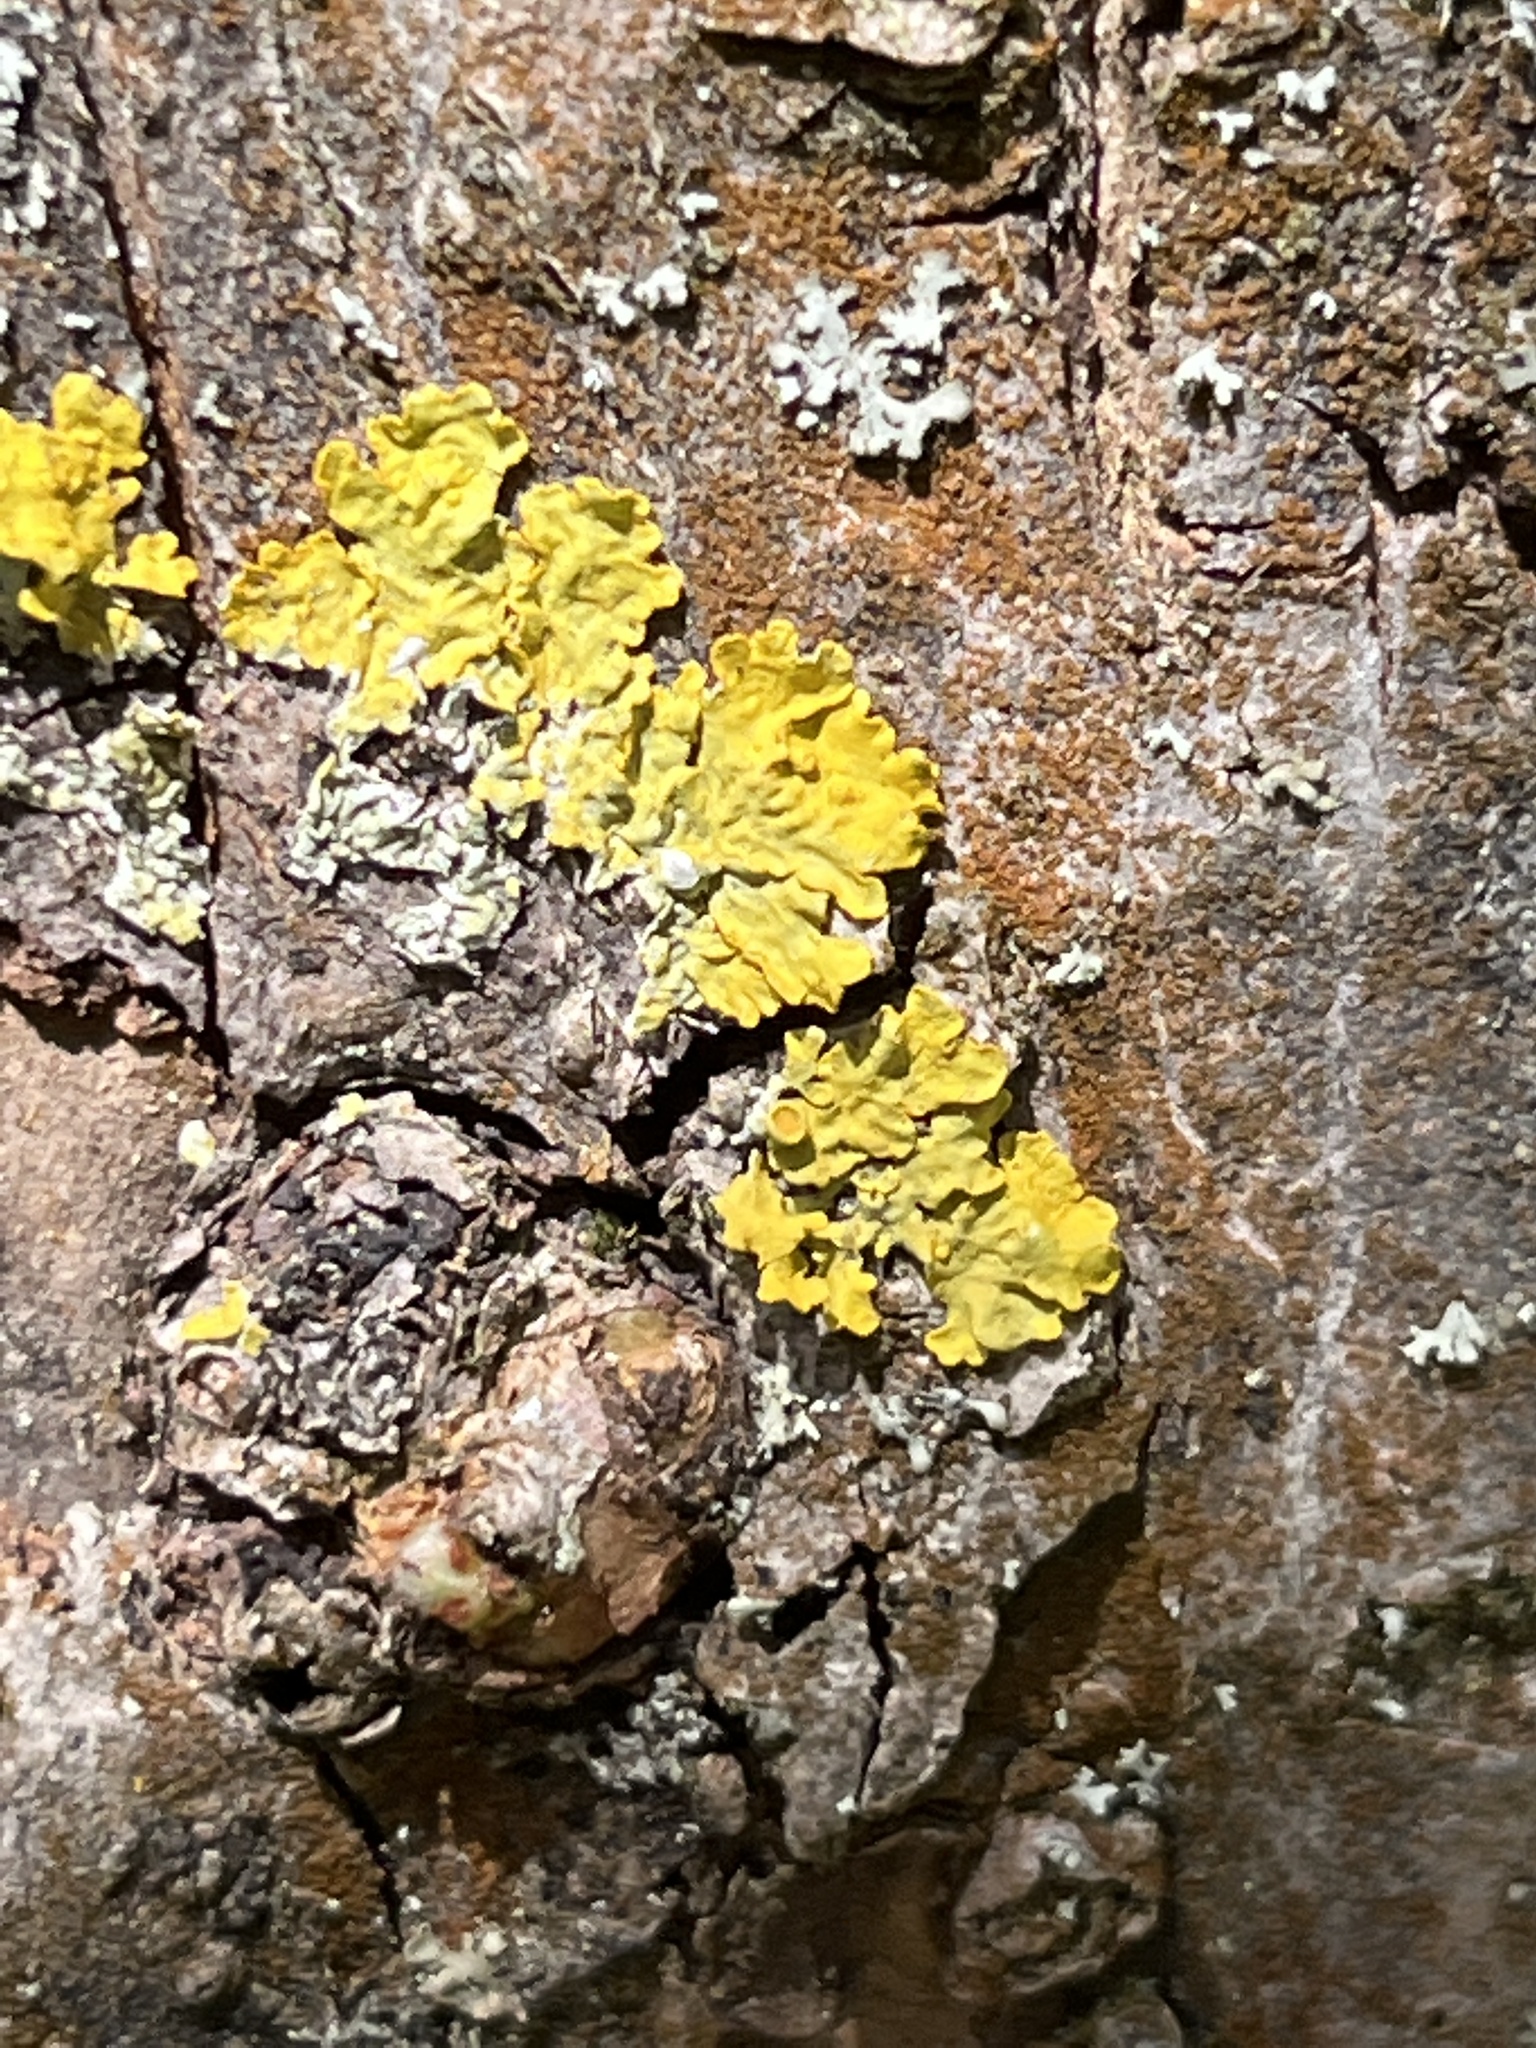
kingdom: Fungi
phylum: Ascomycota
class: Lecanoromycetes
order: Teloschistales
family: Teloschistaceae
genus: Xanthoria
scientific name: Xanthoria parietina
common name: Common orange lichen
